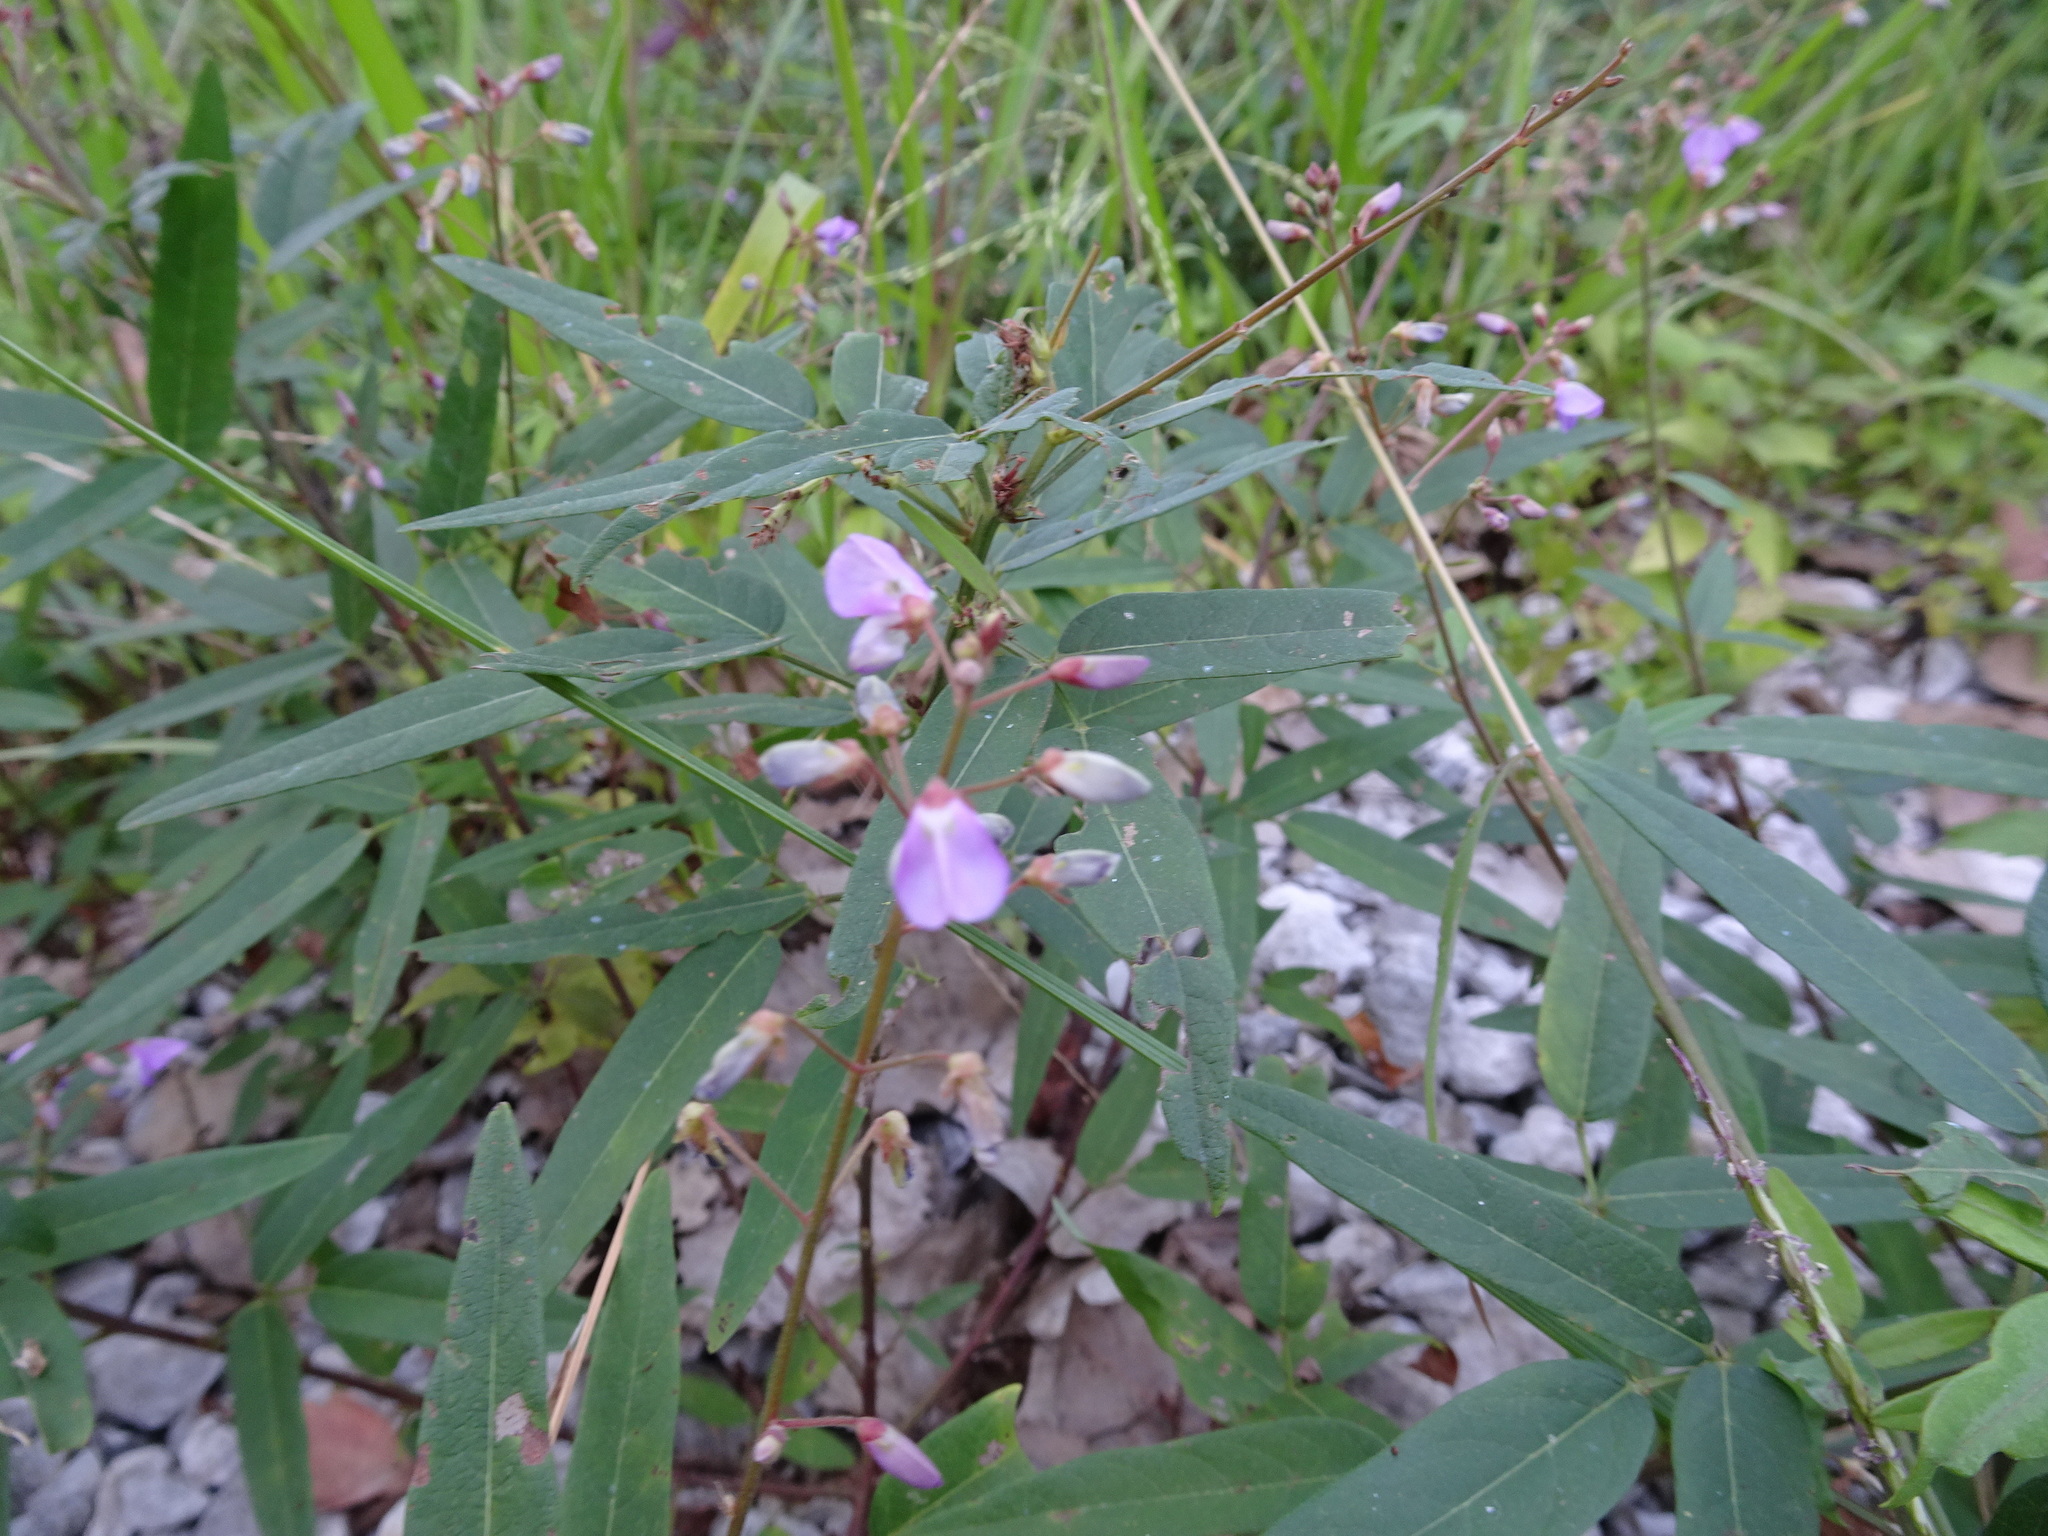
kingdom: Plantae
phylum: Tracheophyta
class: Magnoliopsida
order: Fabales
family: Fabaceae
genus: Desmodium
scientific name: Desmodium paniculatum
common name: Panicled tick-clover
